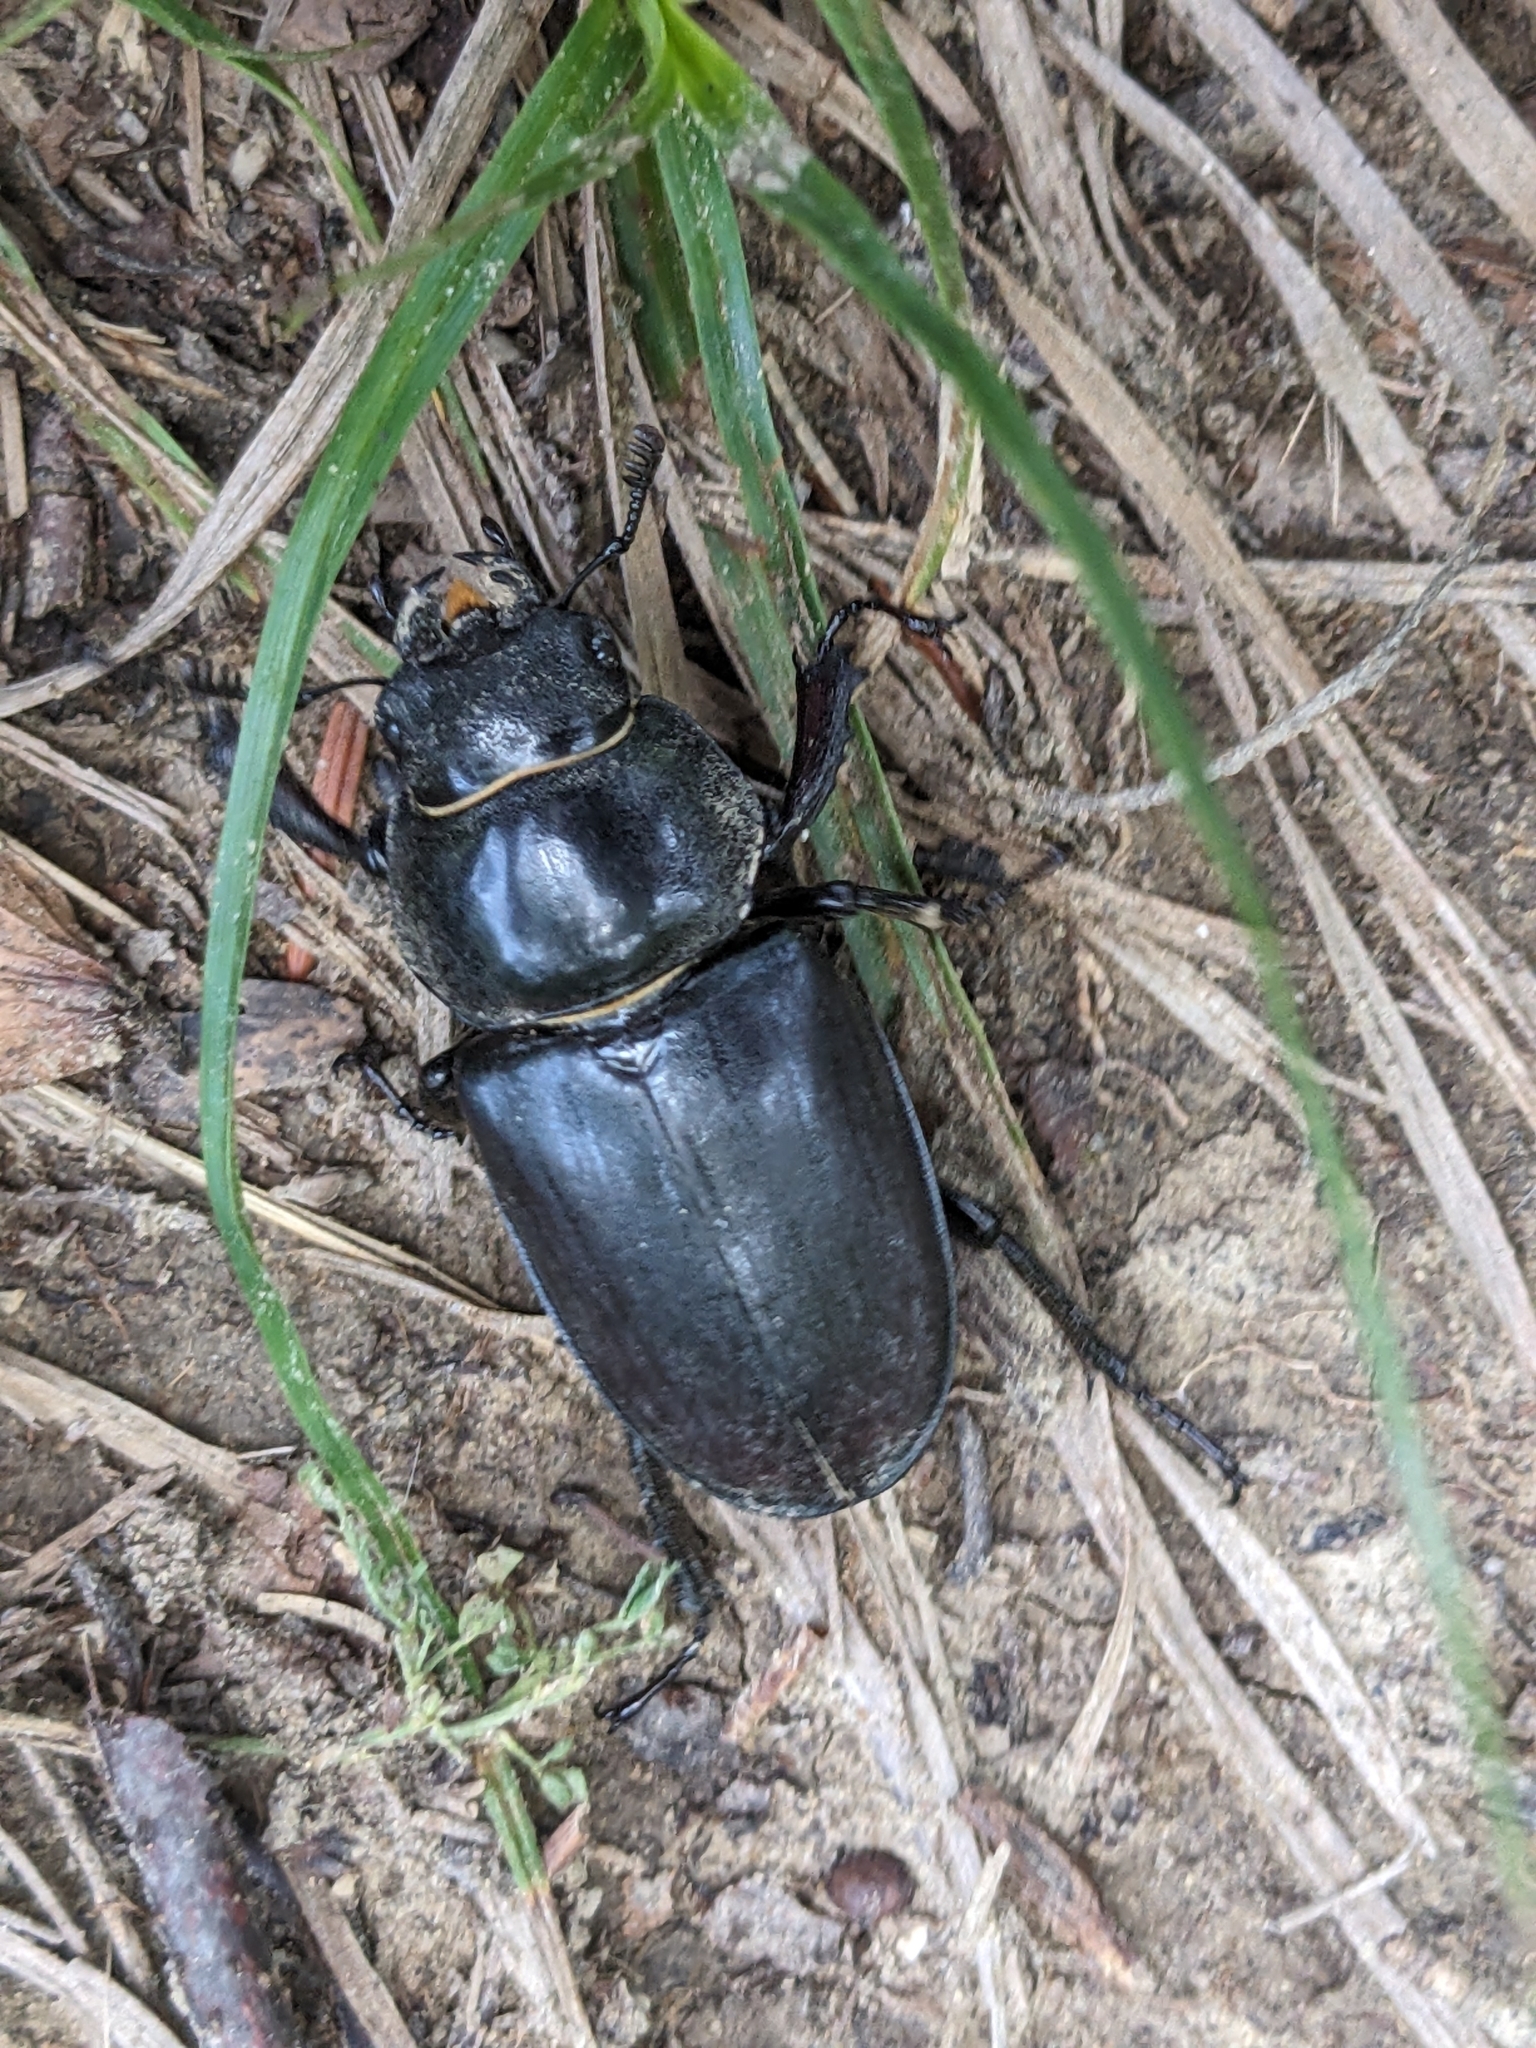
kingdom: Animalia
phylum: Arthropoda
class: Insecta
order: Coleoptera
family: Lucanidae
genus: Lucanus
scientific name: Lucanus cervus
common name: Stag beetle
